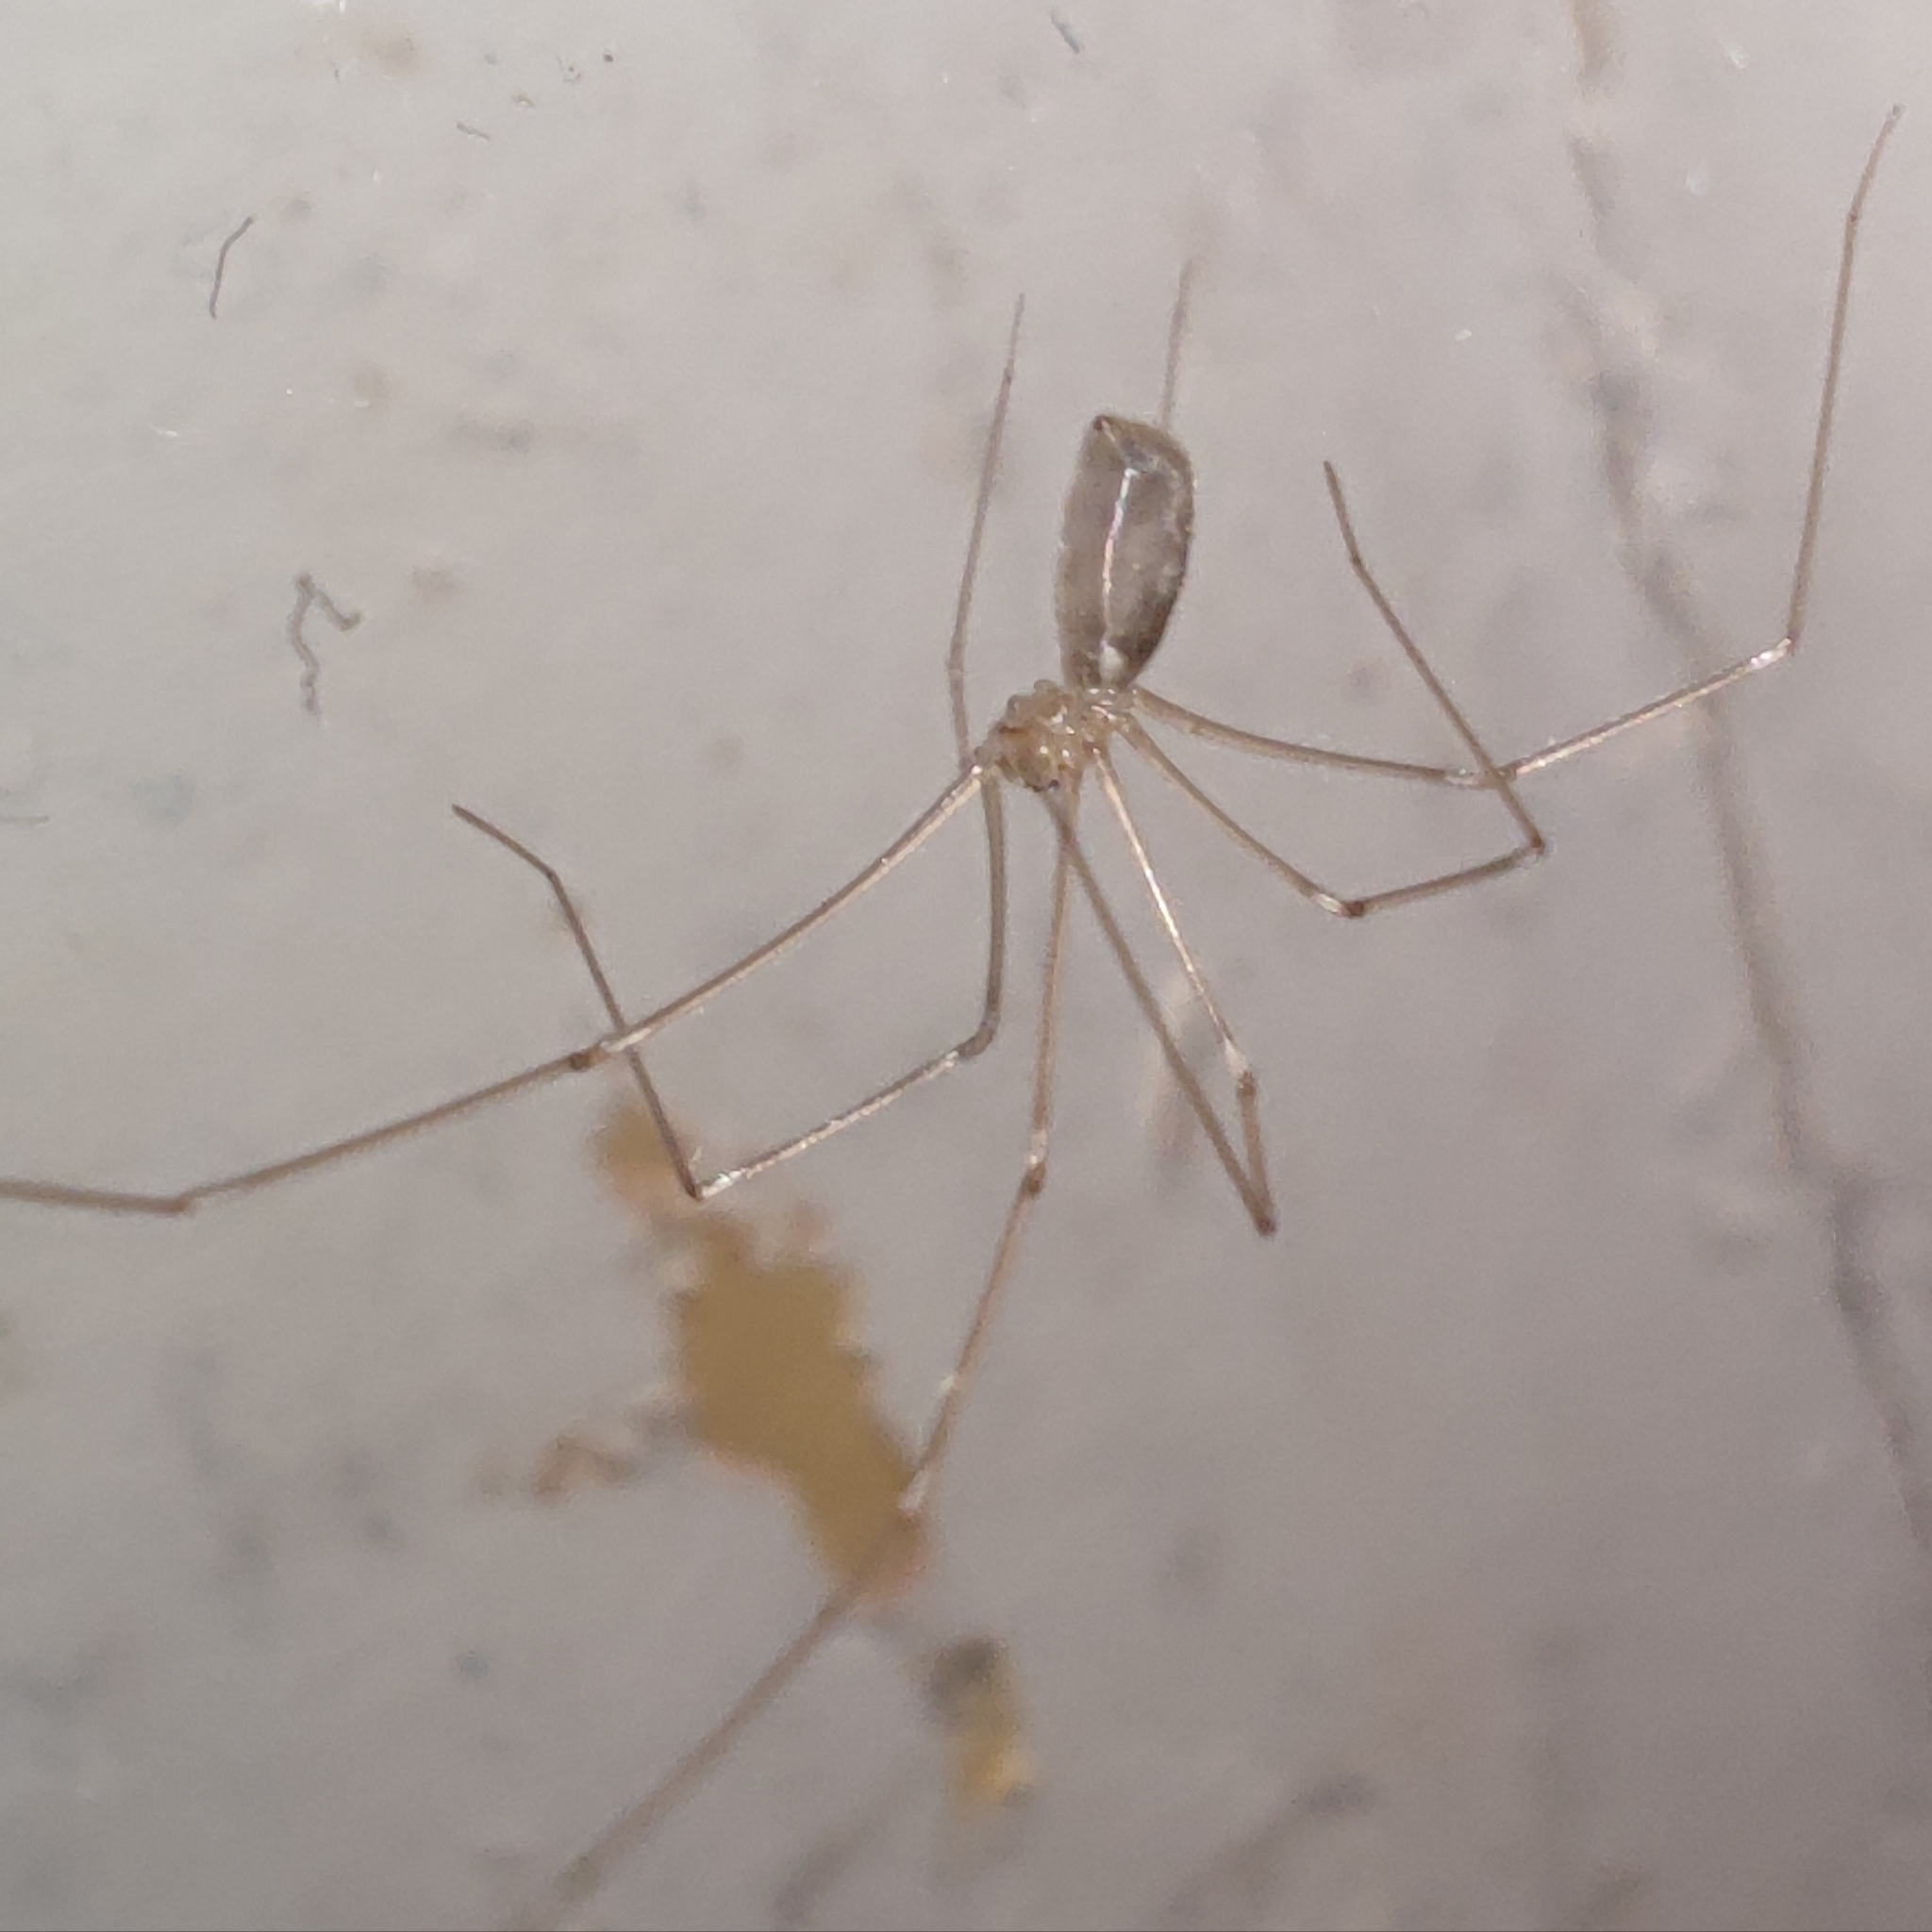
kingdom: Animalia
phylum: Arthropoda
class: Arachnida
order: Araneae
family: Pholcidae
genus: Pholcus
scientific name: Pholcus phalangioides
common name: Longbodied cellar spider
